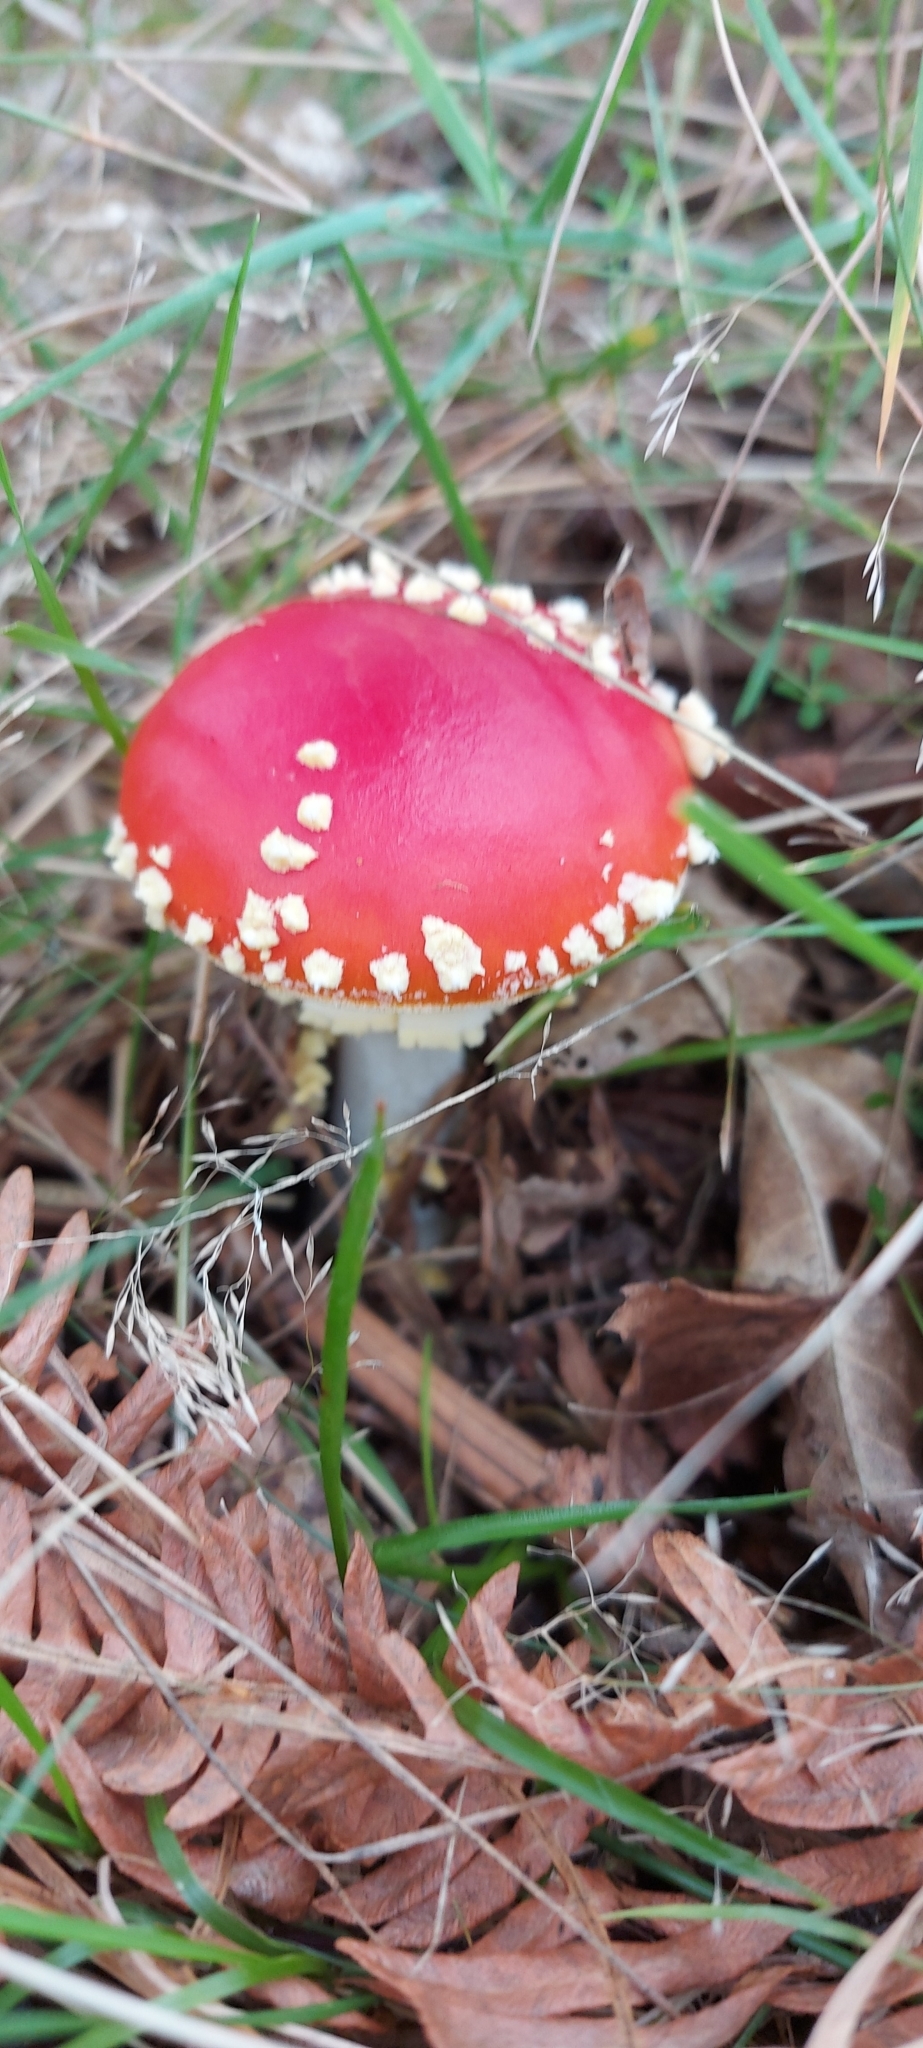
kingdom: Fungi
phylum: Basidiomycota
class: Agaricomycetes
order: Agaricales
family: Amanitaceae
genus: Amanita
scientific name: Amanita muscaria
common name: Fly agaric
